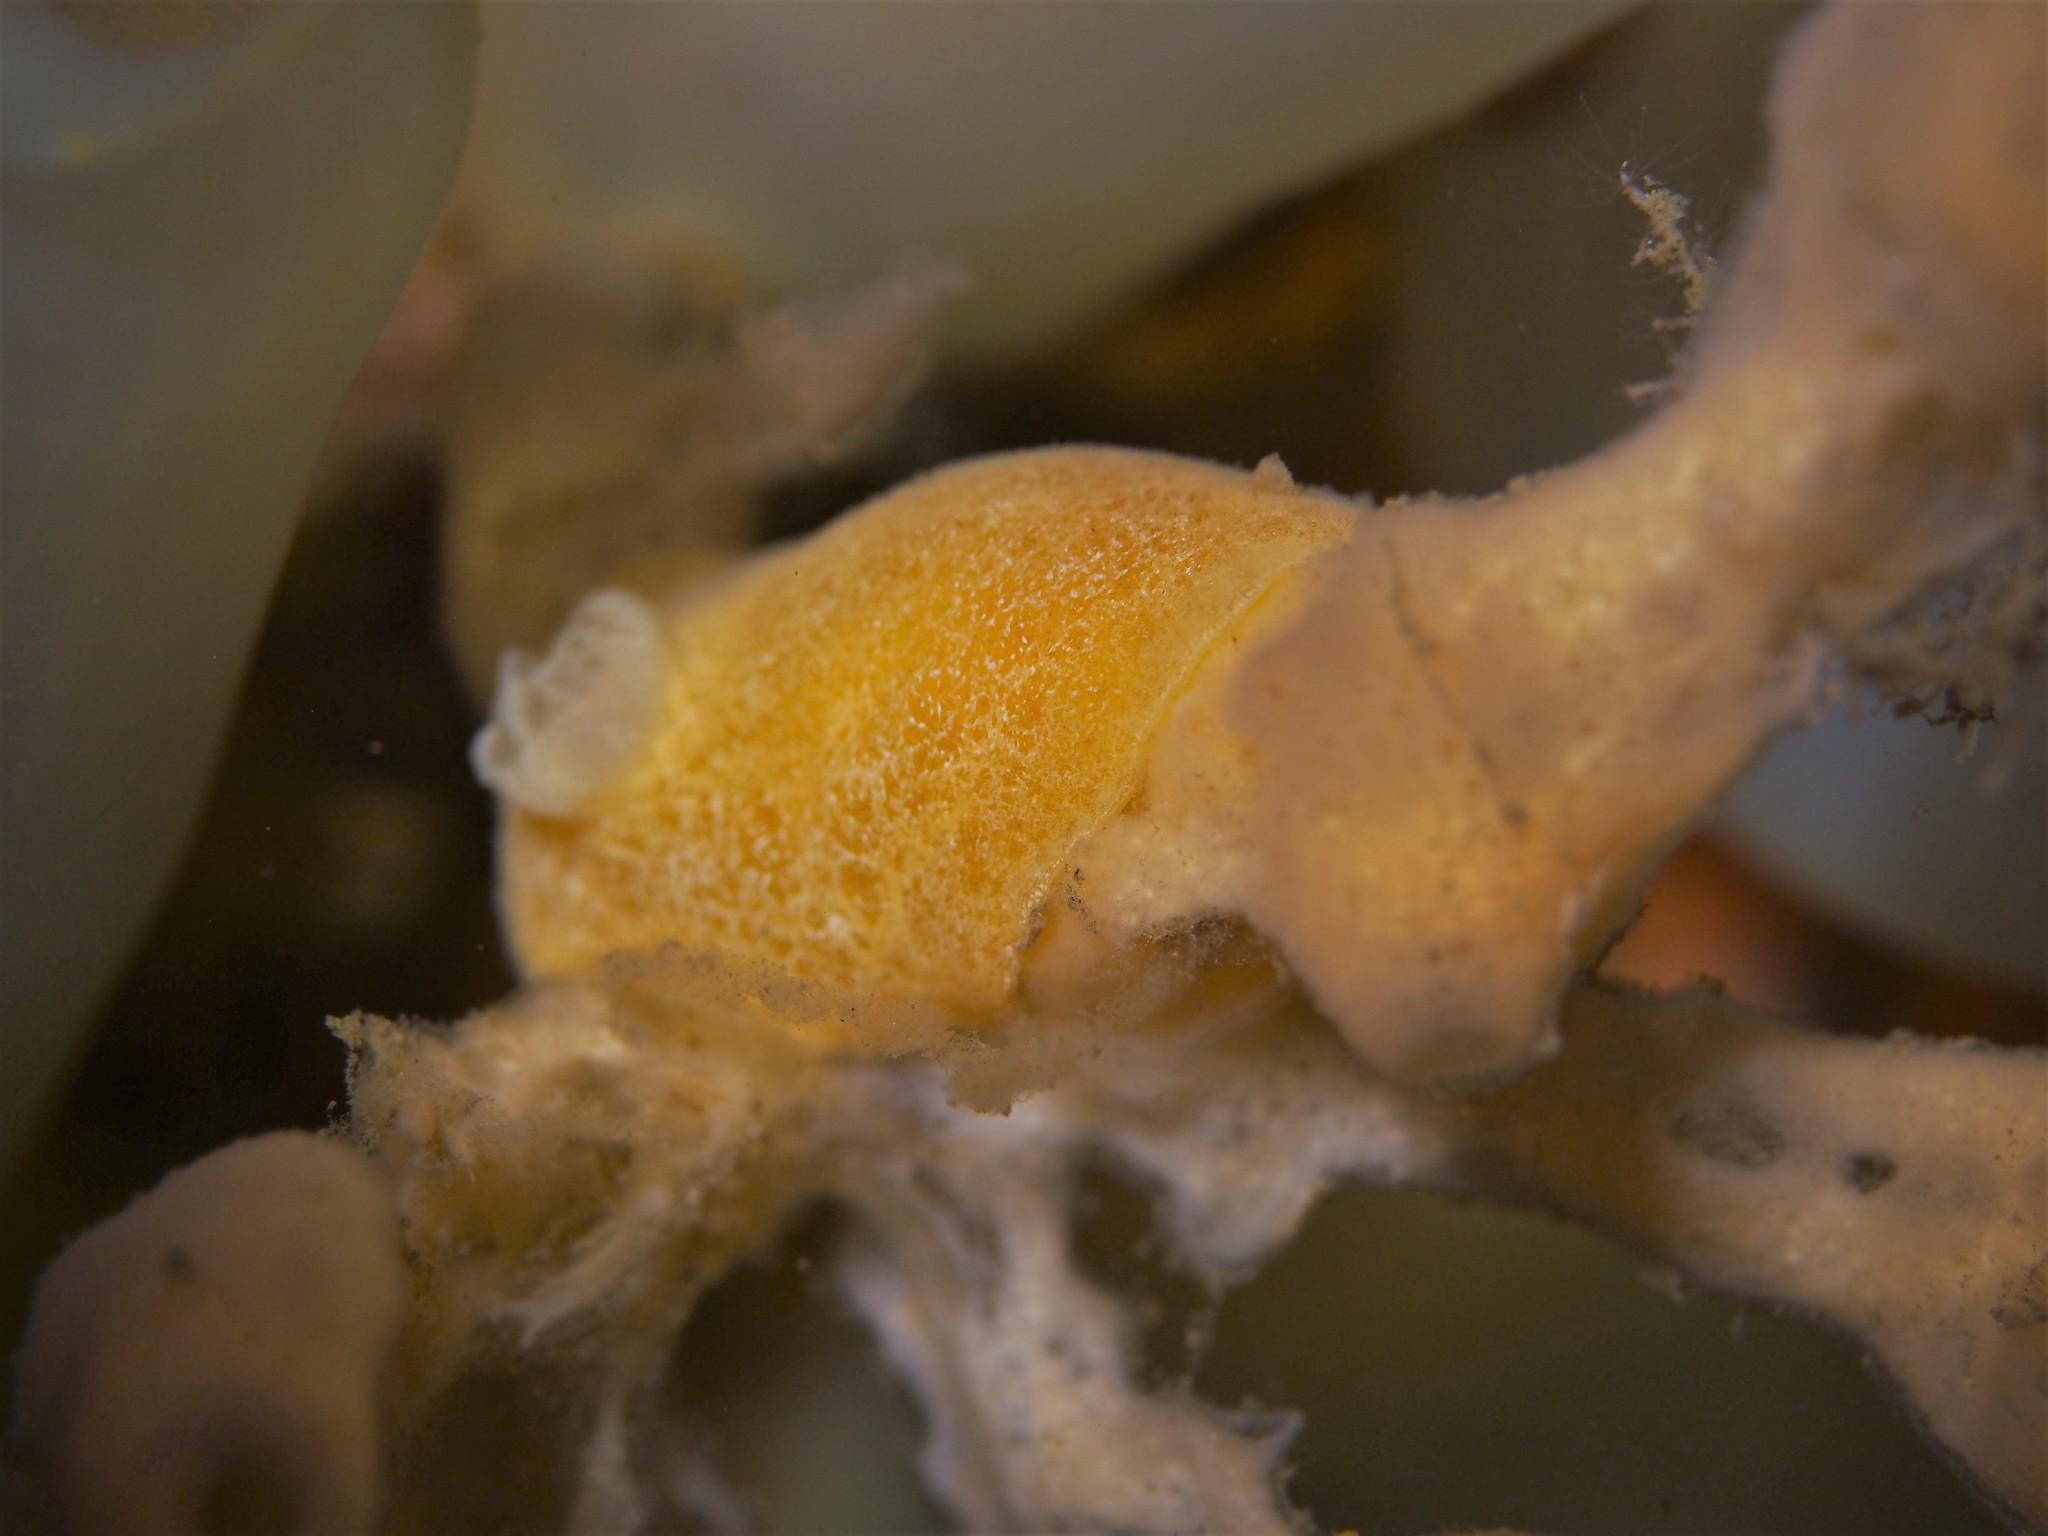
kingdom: Animalia
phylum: Mollusca
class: Gastropoda
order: Nudibranchia
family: Discodorididae
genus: Jorunna
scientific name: Jorunna tomentosa
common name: Grey sea slug
